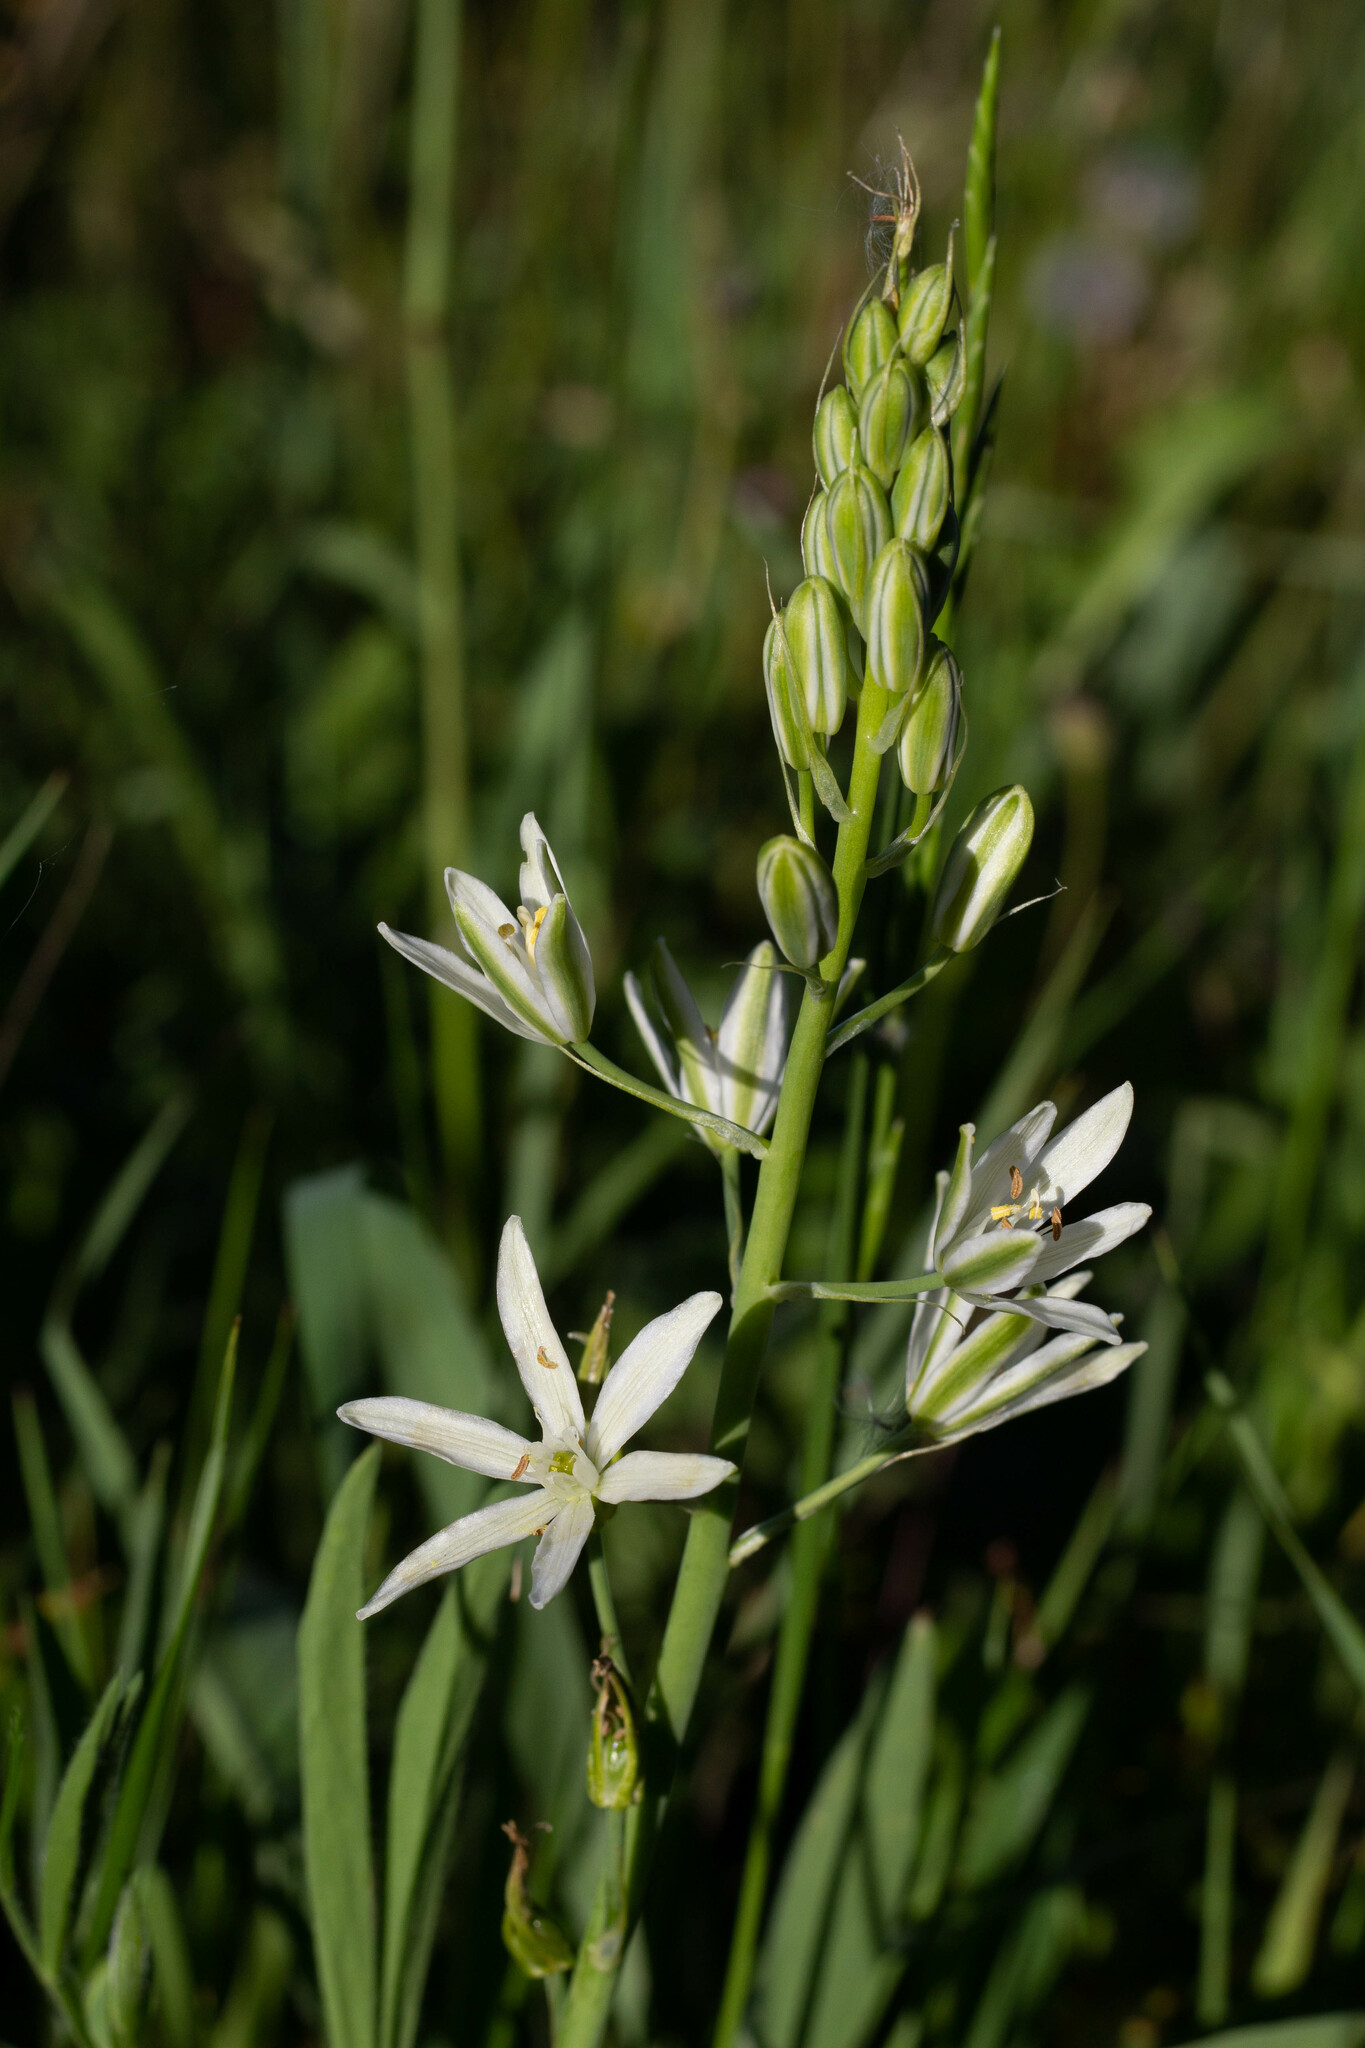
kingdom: Plantae
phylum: Tracheophyta
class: Liliopsida
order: Asparagales
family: Asparagaceae
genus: Ornithogalum
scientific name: Ornithogalum narbonense
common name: Bath-asparagus
